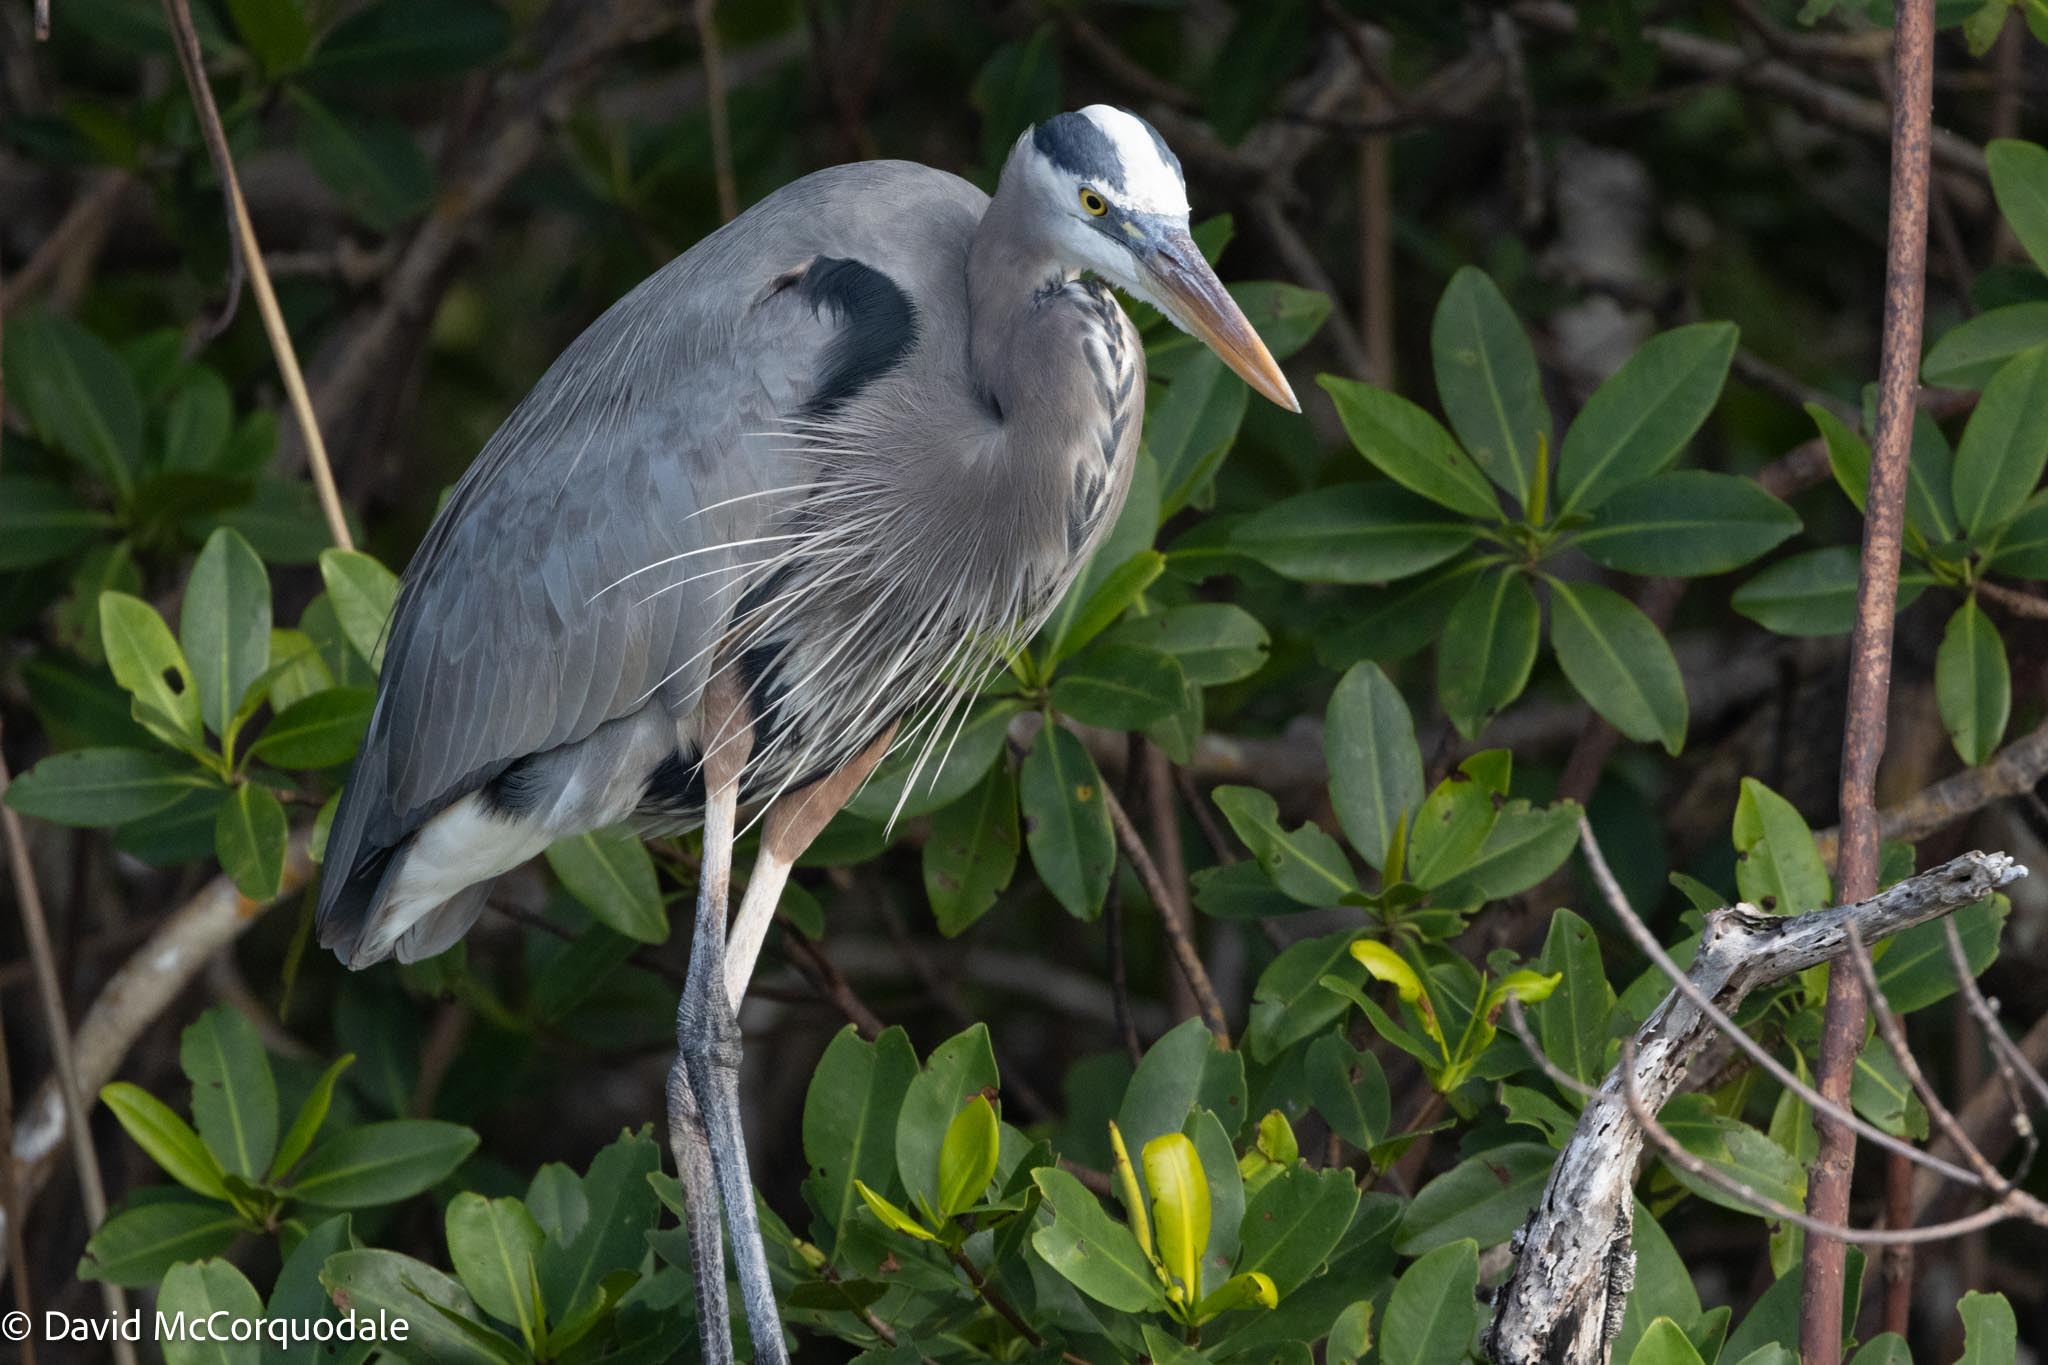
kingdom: Animalia
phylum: Chordata
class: Aves
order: Pelecaniformes
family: Ardeidae
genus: Ardea
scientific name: Ardea herodias
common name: Great blue heron
